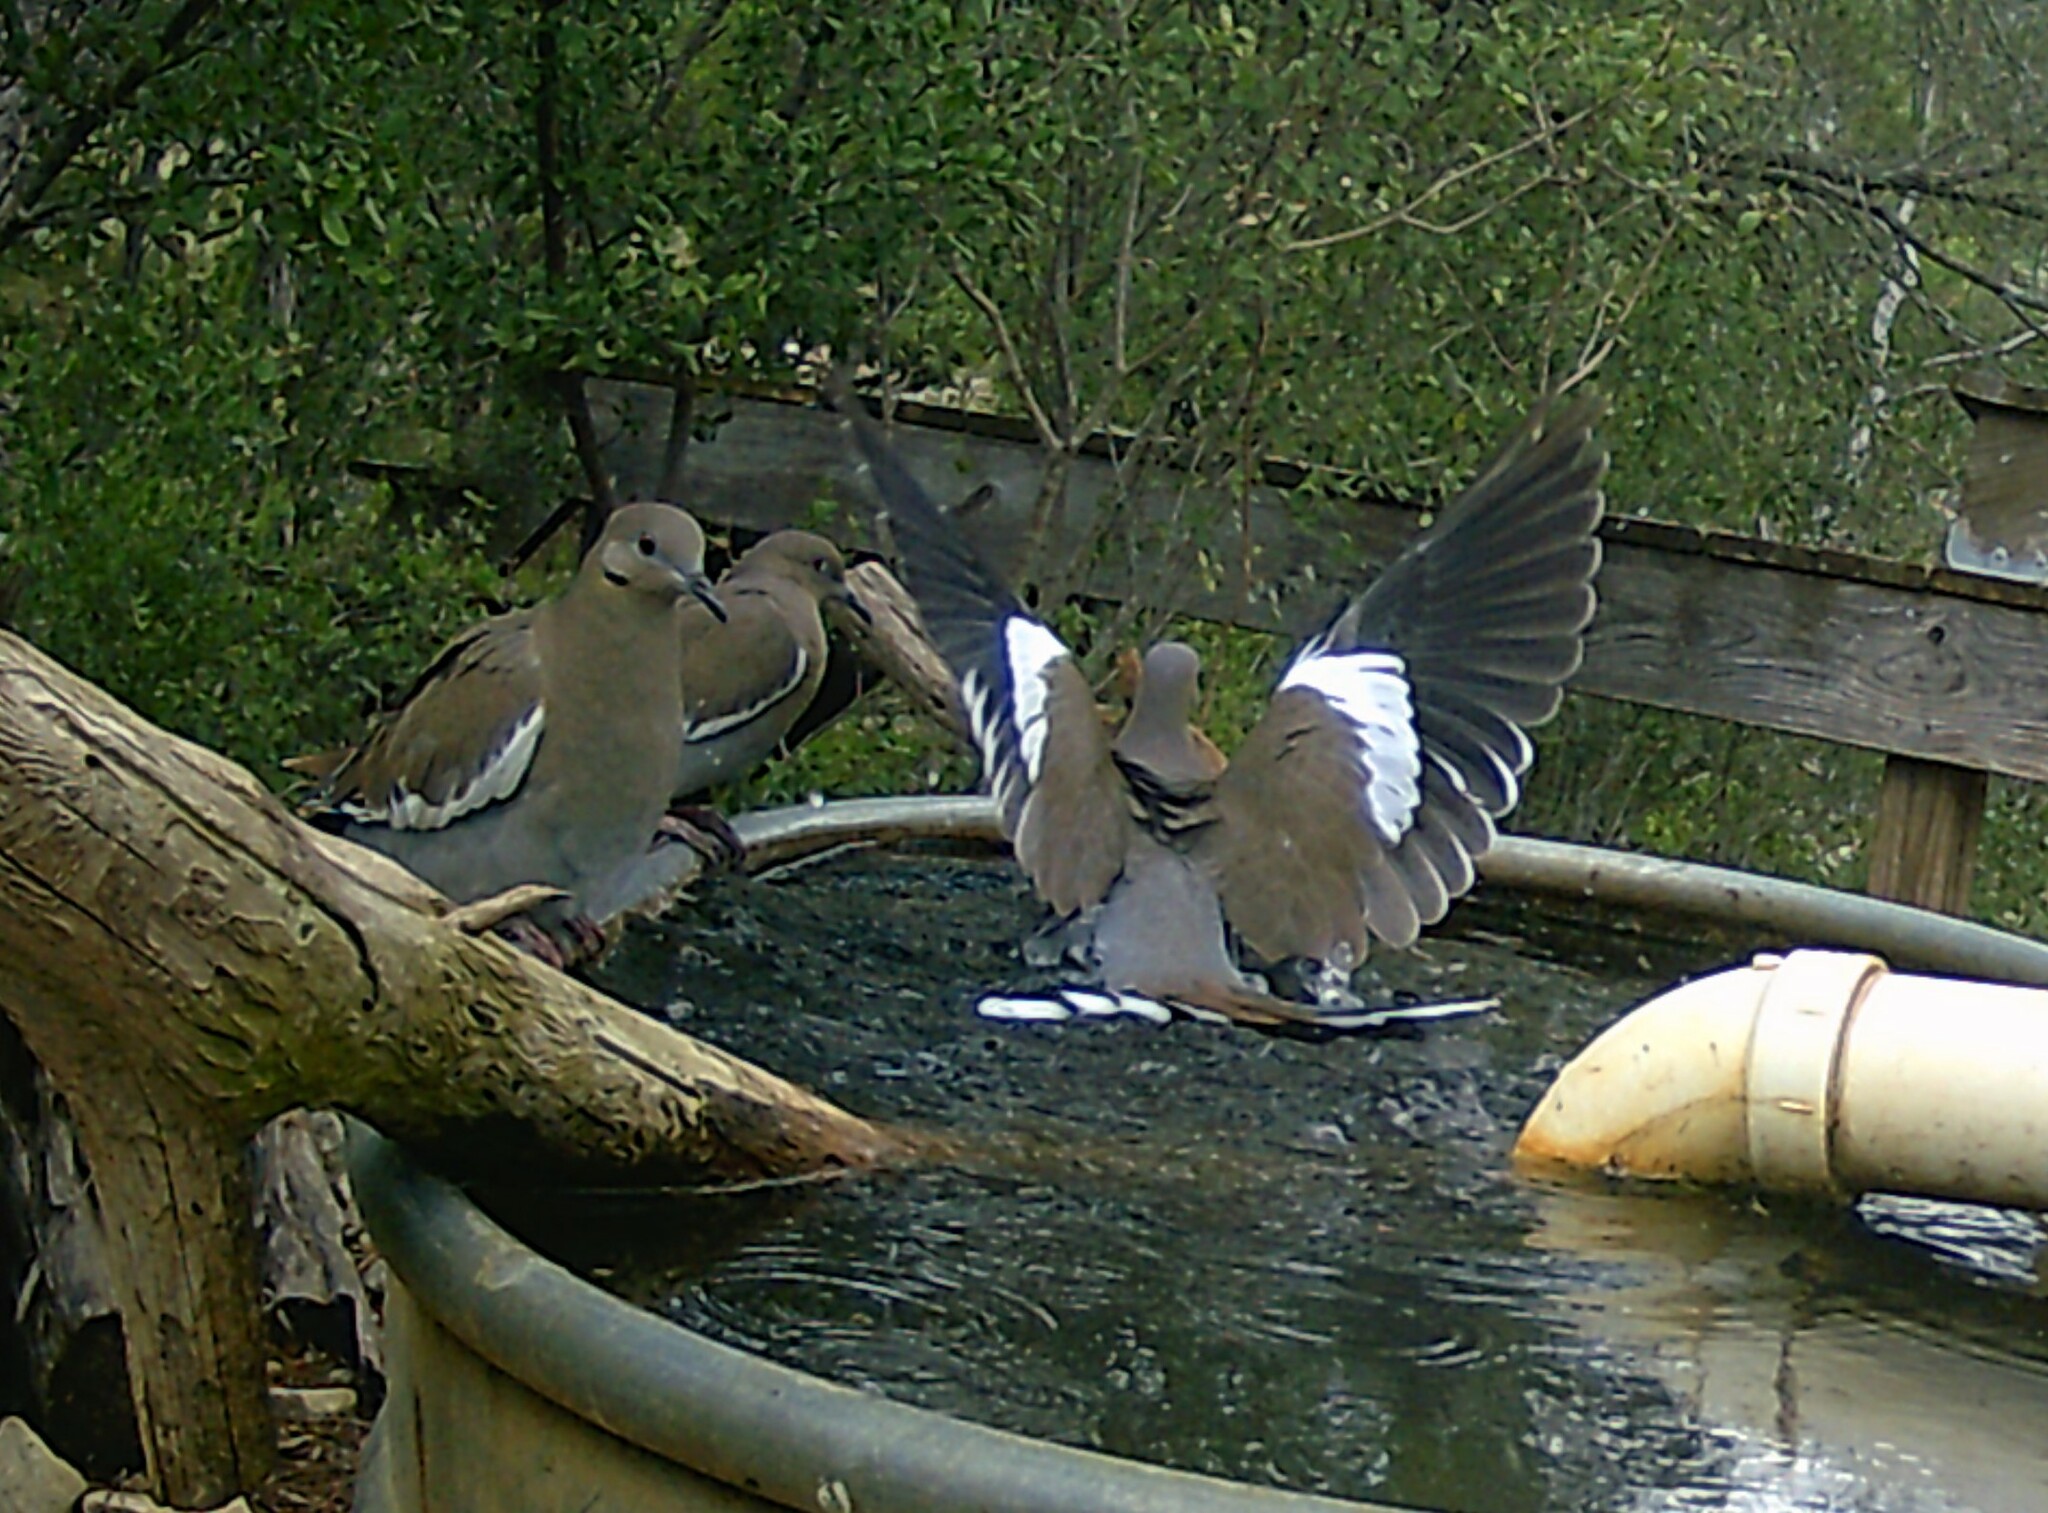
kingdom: Animalia
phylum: Chordata
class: Aves
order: Columbiformes
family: Columbidae
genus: Zenaida
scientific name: Zenaida asiatica
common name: White-winged dove
